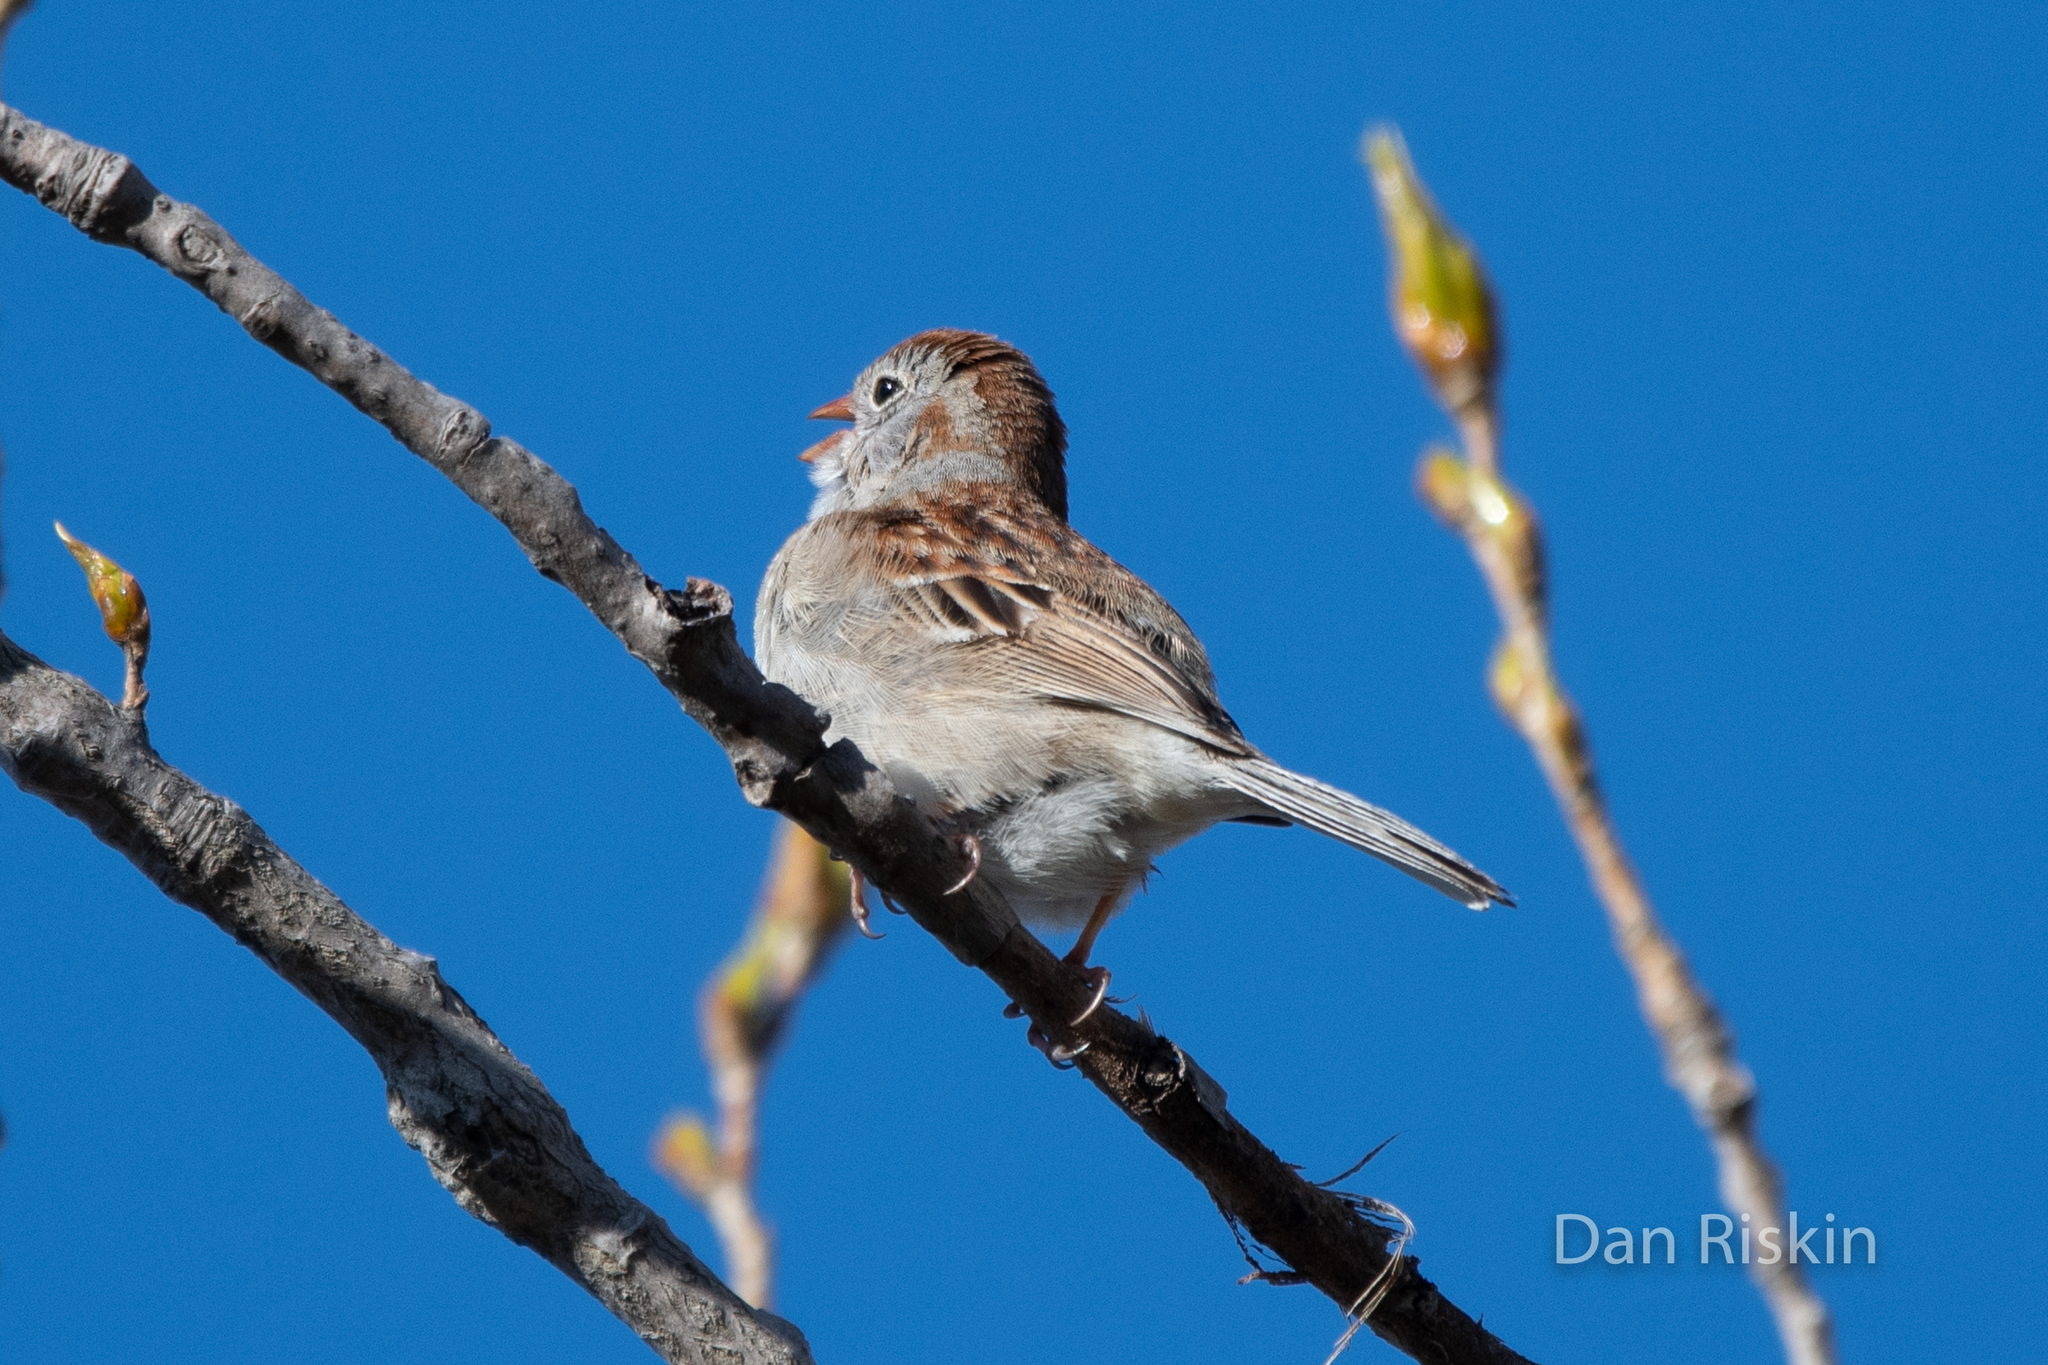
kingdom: Animalia
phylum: Chordata
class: Aves
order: Passeriformes
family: Passerellidae
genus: Spizella
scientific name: Spizella pusilla
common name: Field sparrow
